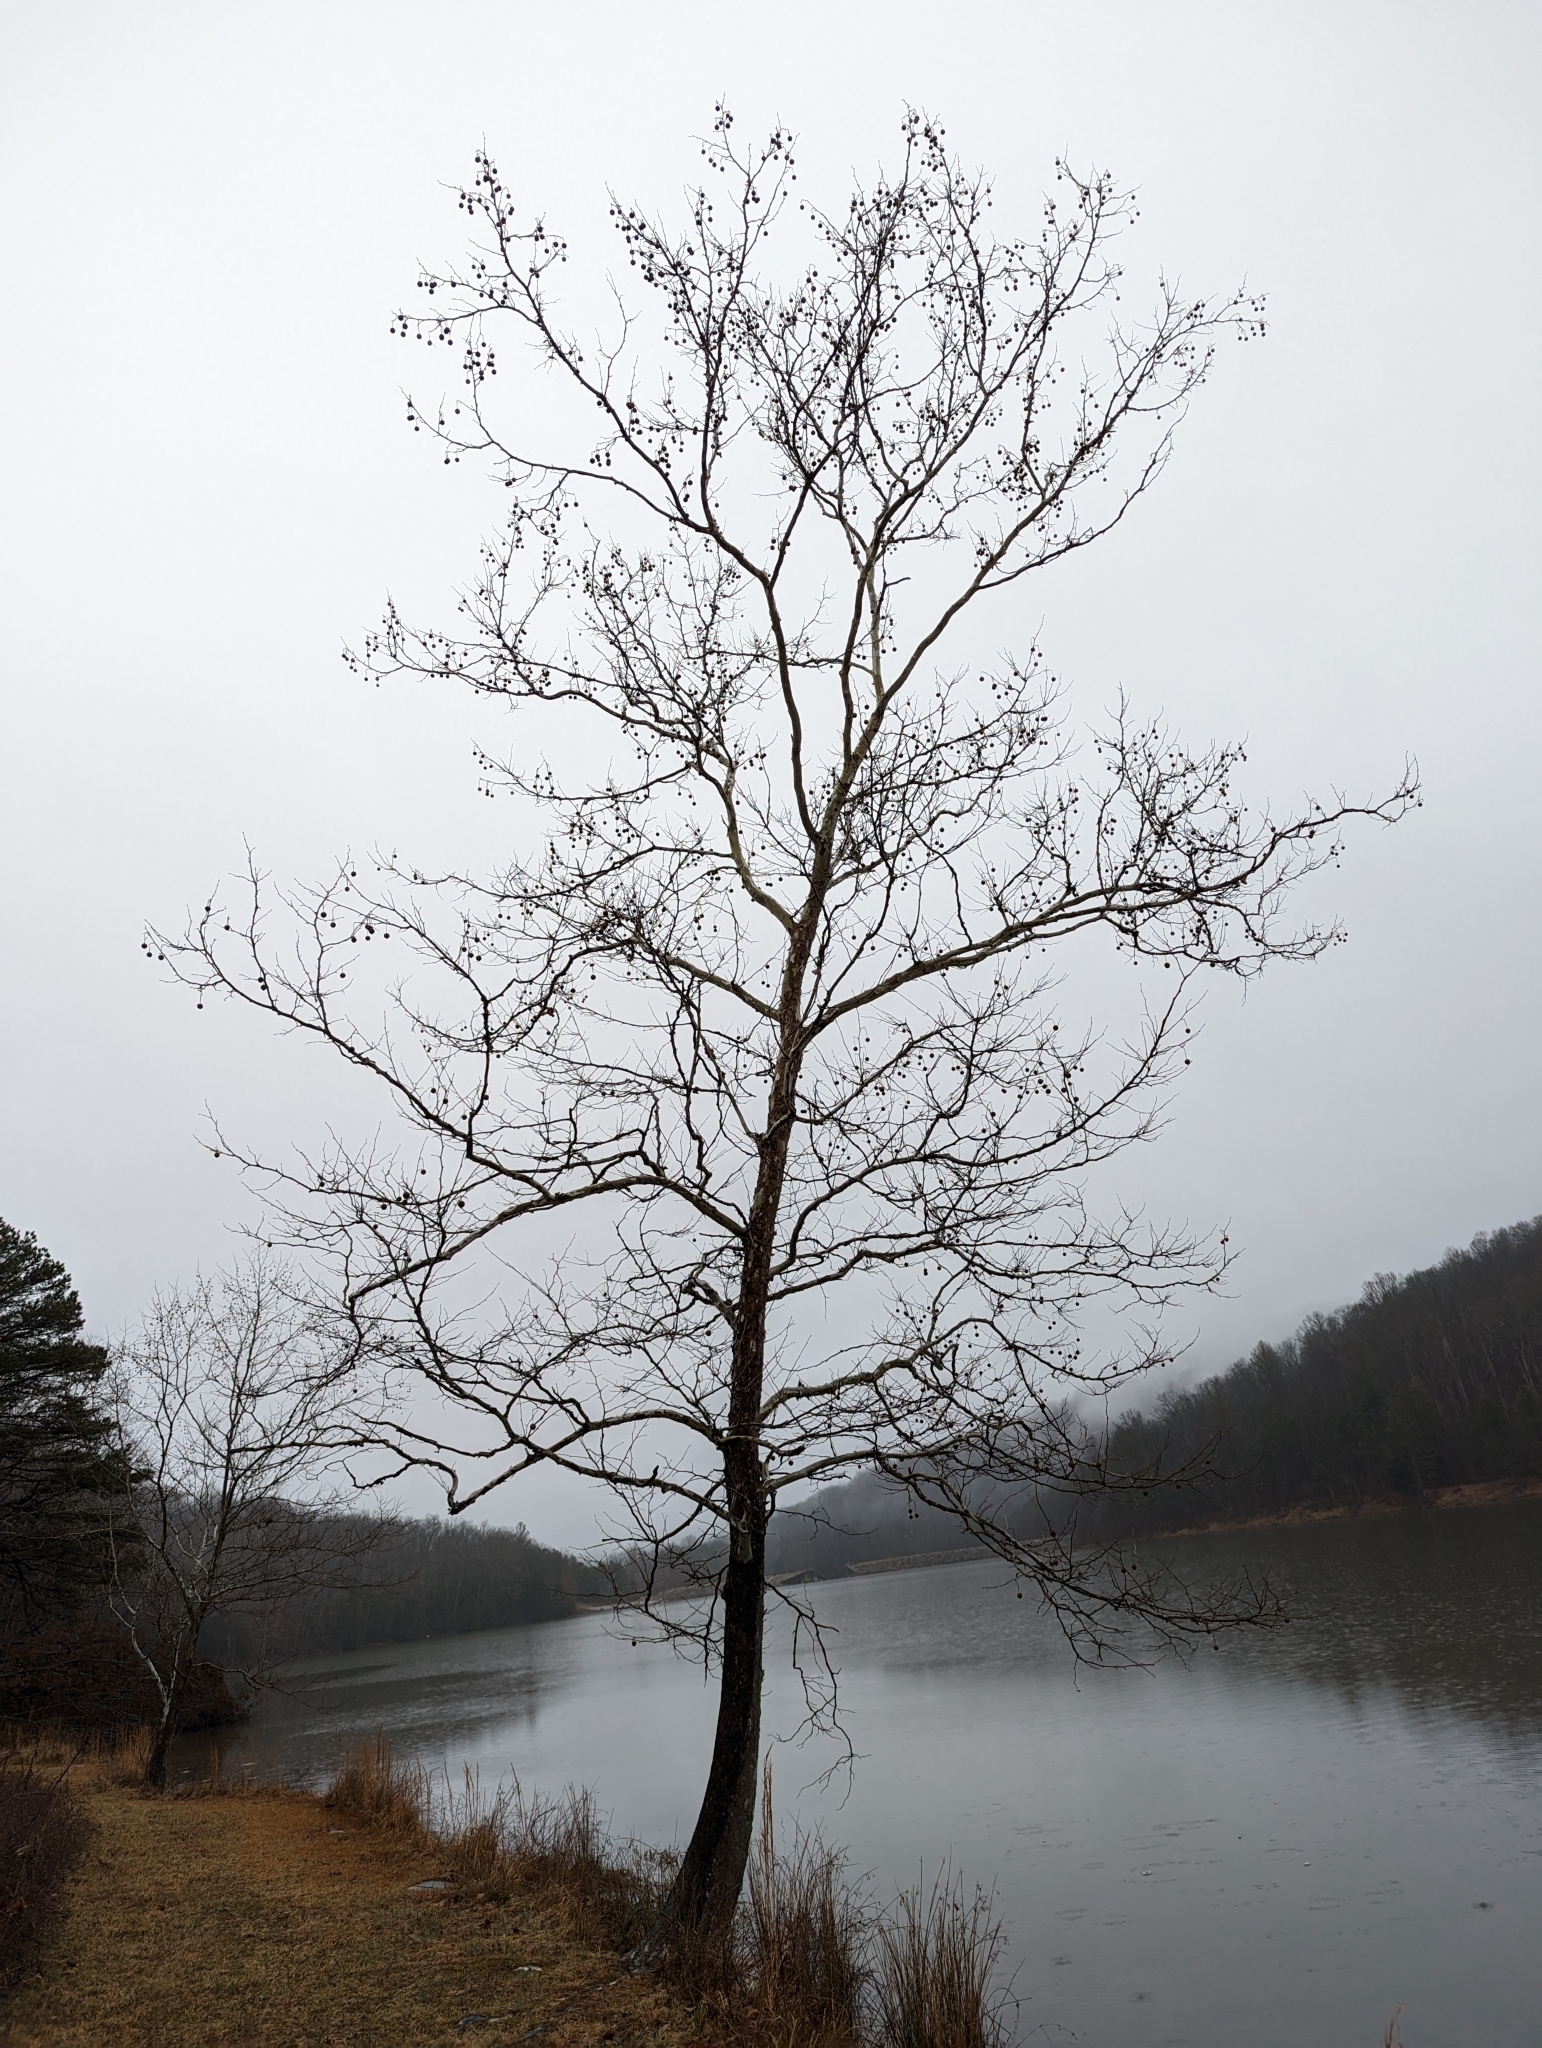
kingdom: Plantae
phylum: Tracheophyta
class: Magnoliopsida
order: Proteales
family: Platanaceae
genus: Platanus
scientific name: Platanus occidentalis
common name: American sycamore
